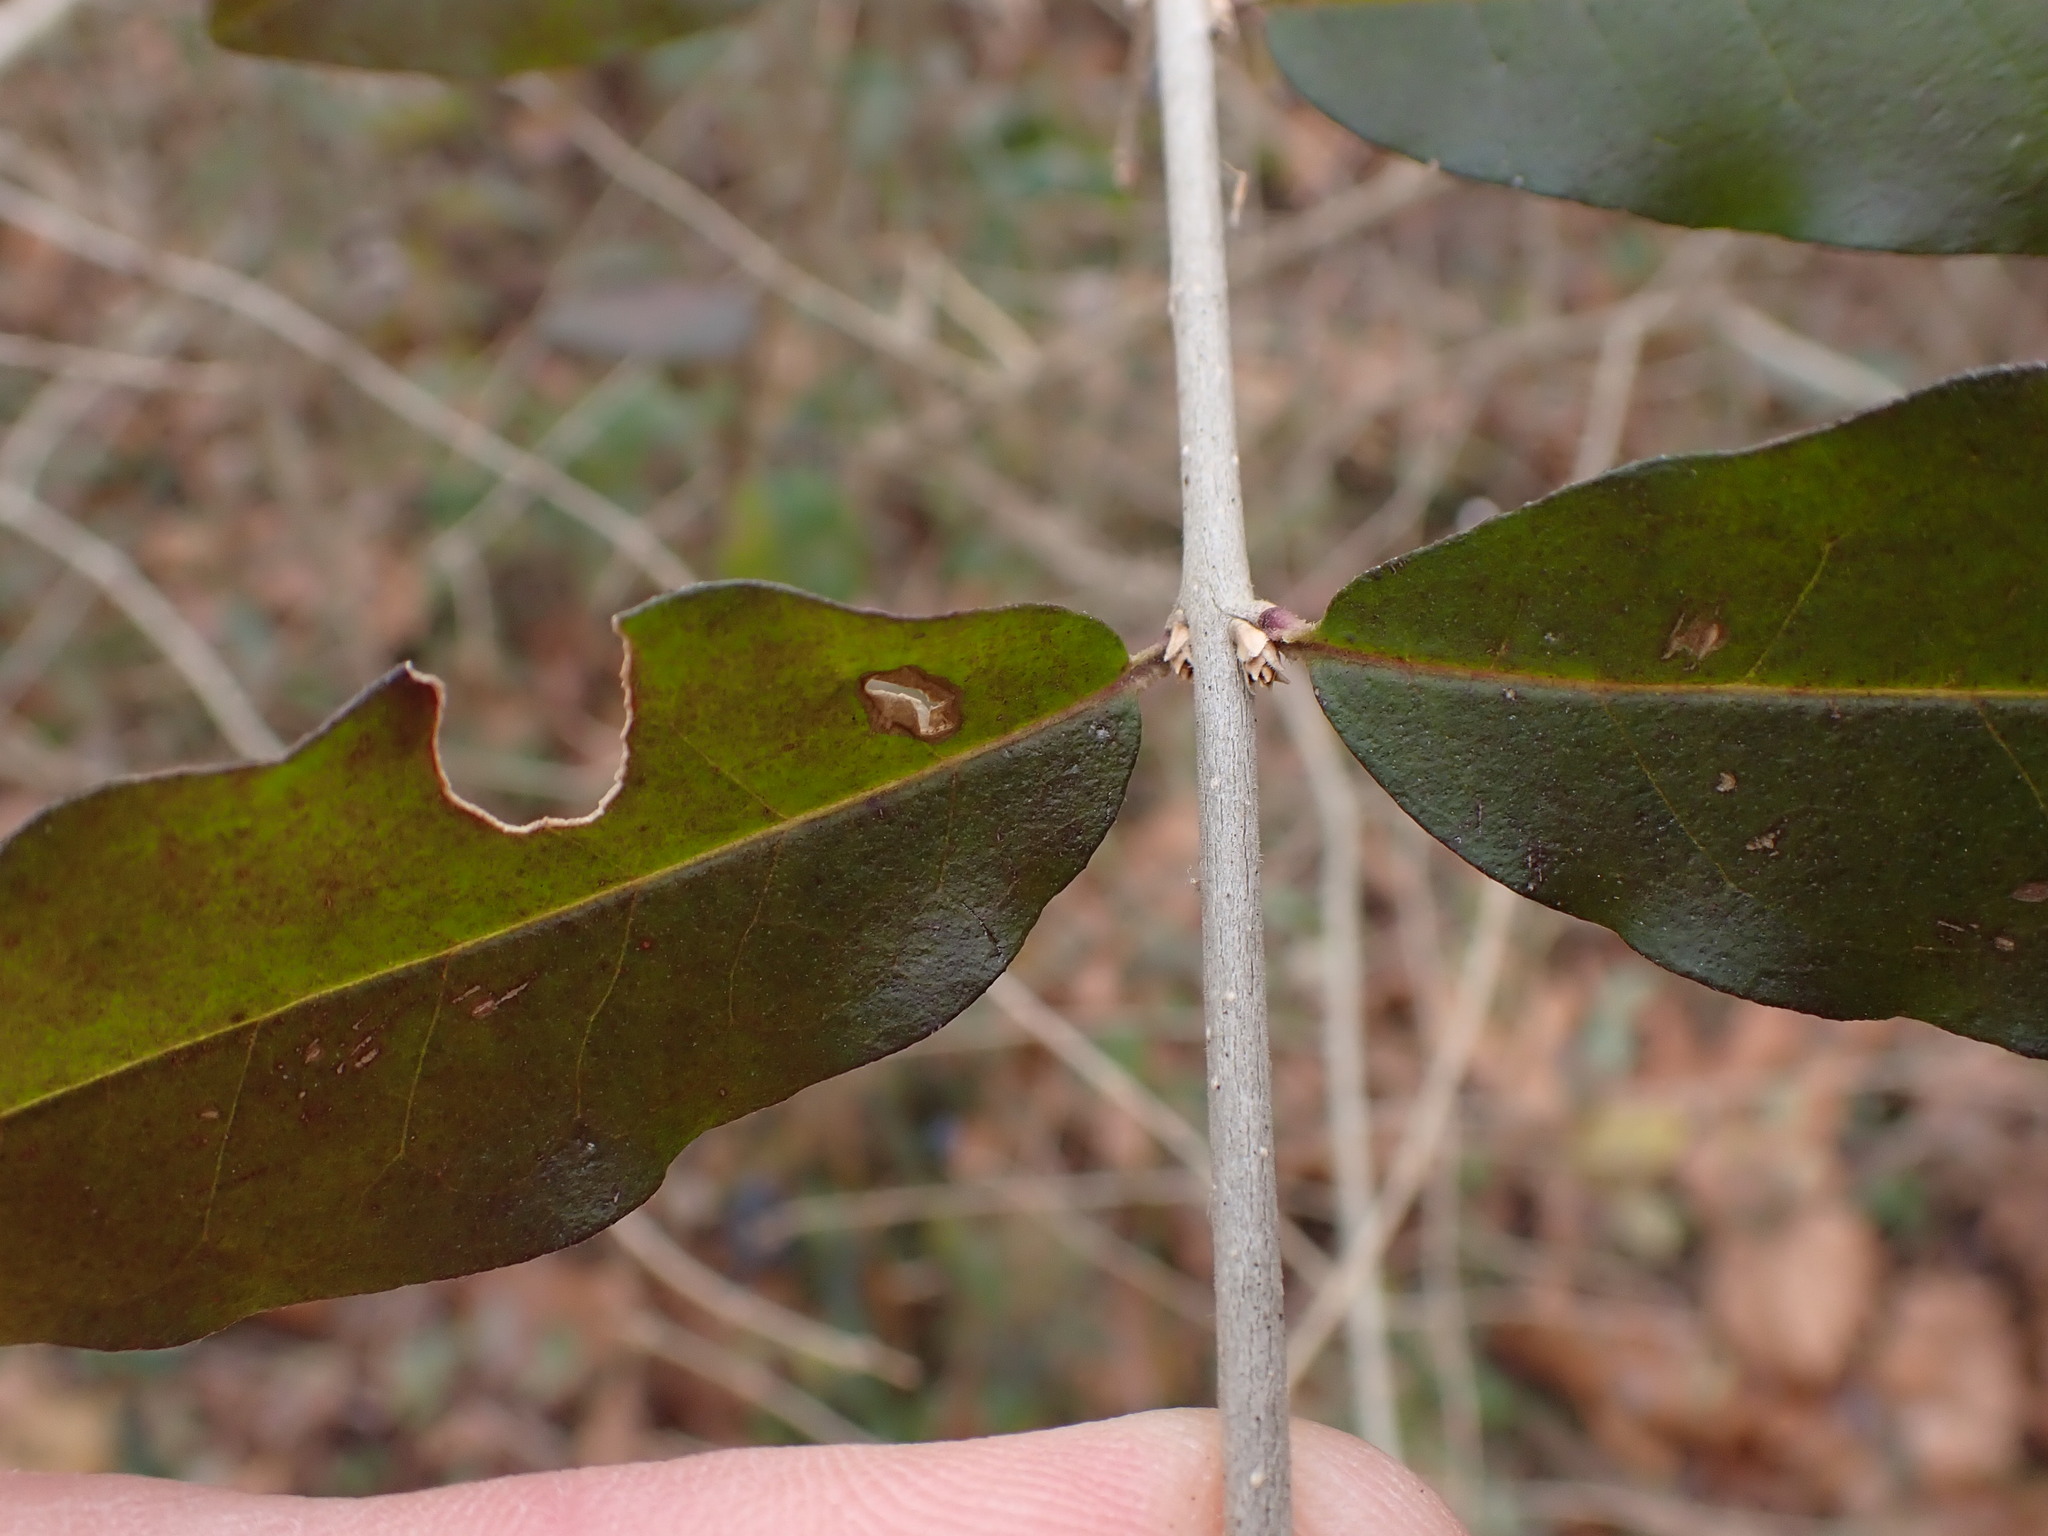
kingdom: Plantae
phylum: Tracheophyta
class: Magnoliopsida
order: Lamiales
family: Oleaceae
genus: Ligustrum
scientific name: Ligustrum obtusifolium
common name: Border privet
